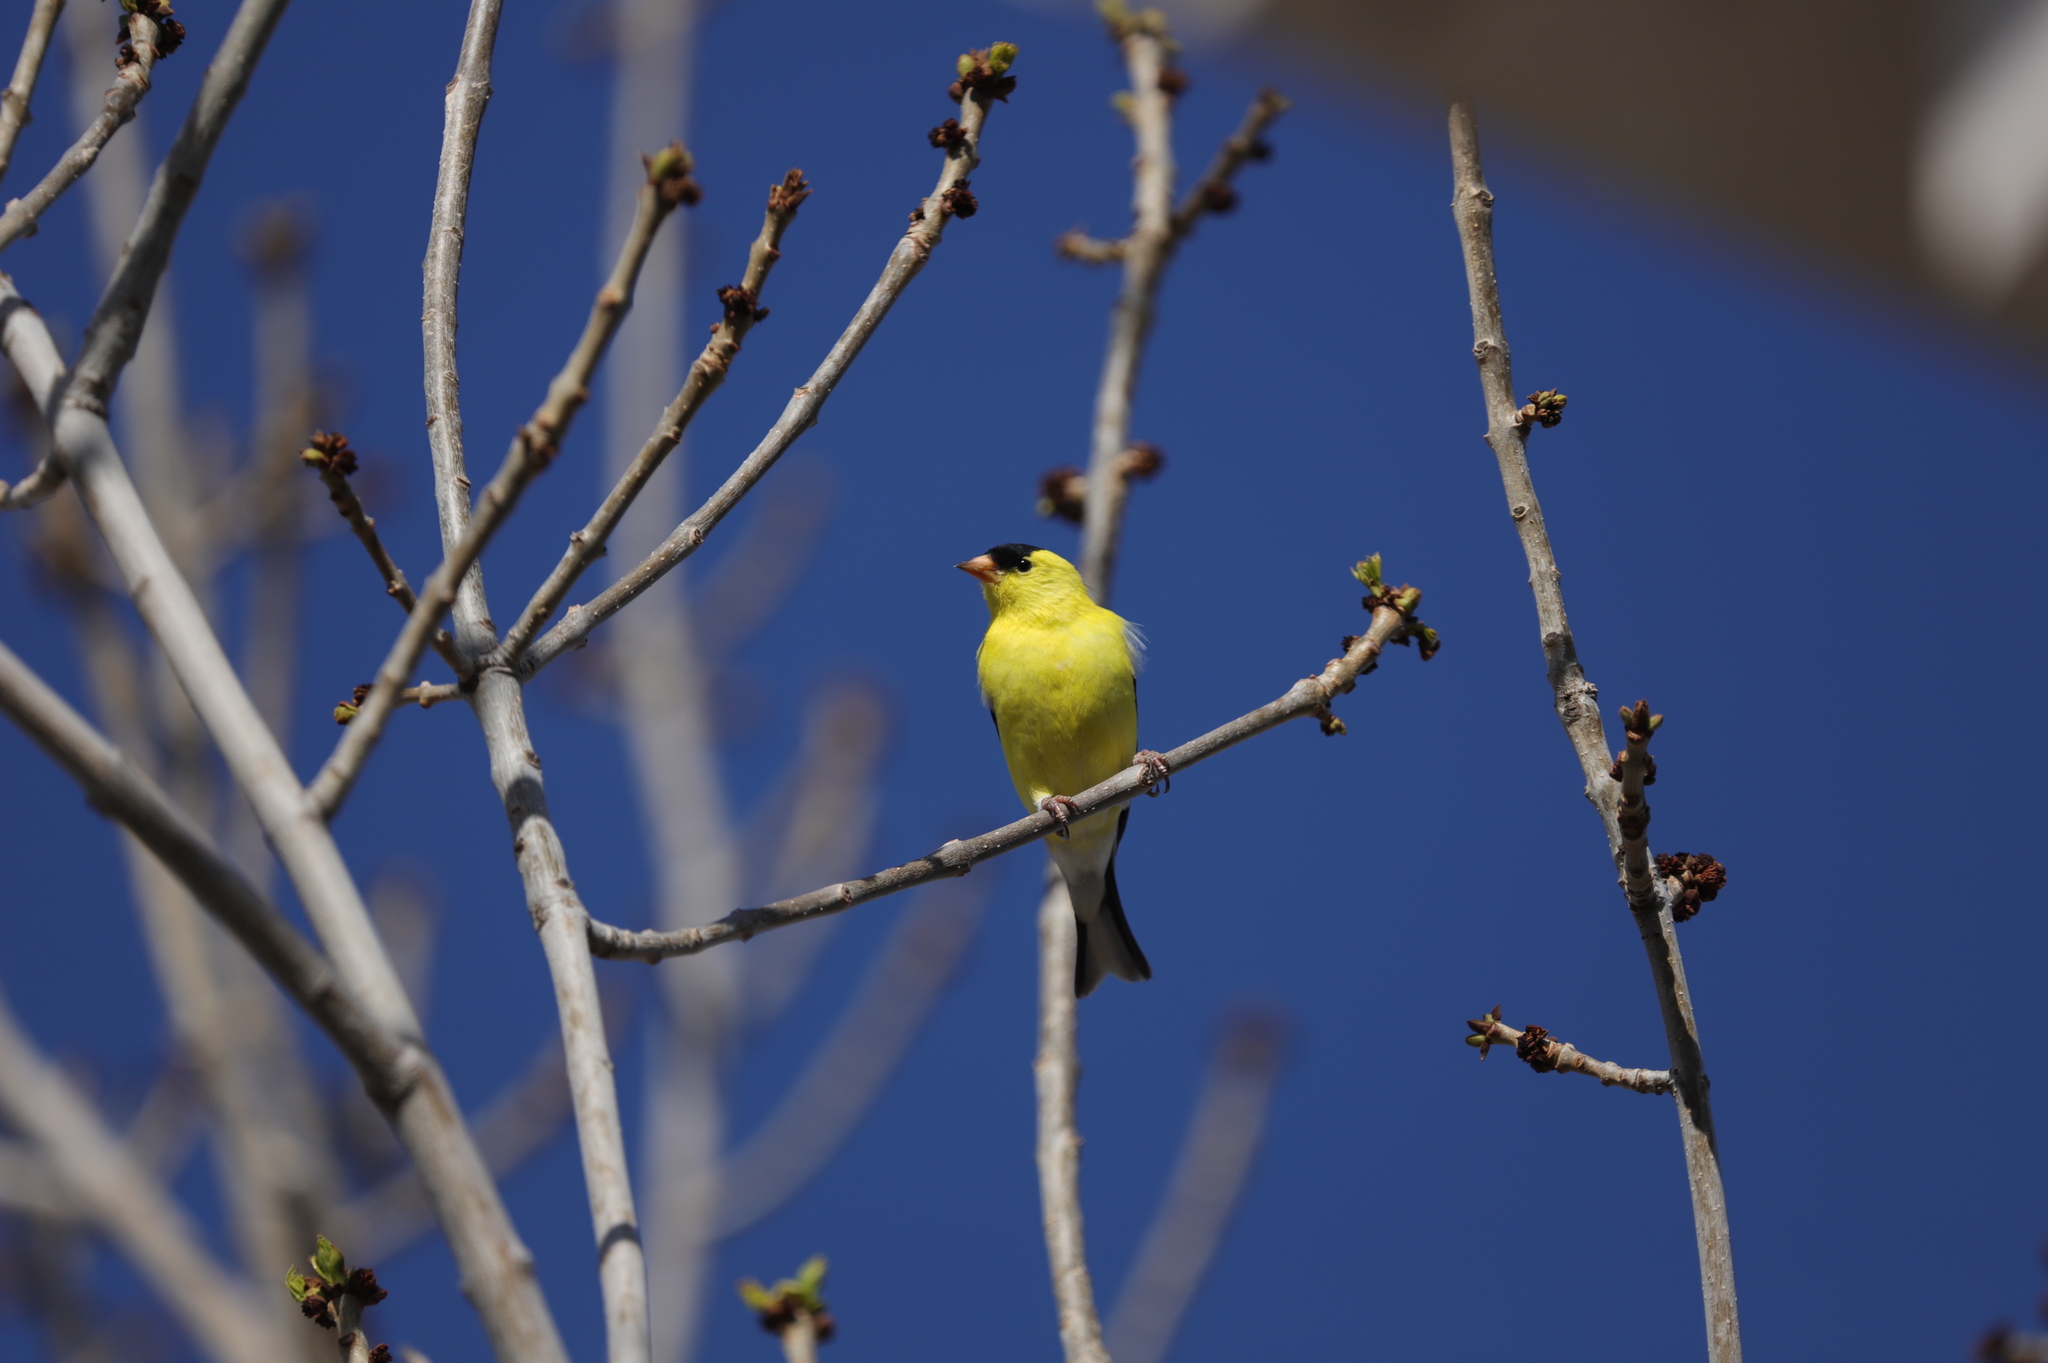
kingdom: Animalia
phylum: Chordata
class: Aves
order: Passeriformes
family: Fringillidae
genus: Spinus
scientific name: Spinus tristis
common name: American goldfinch
